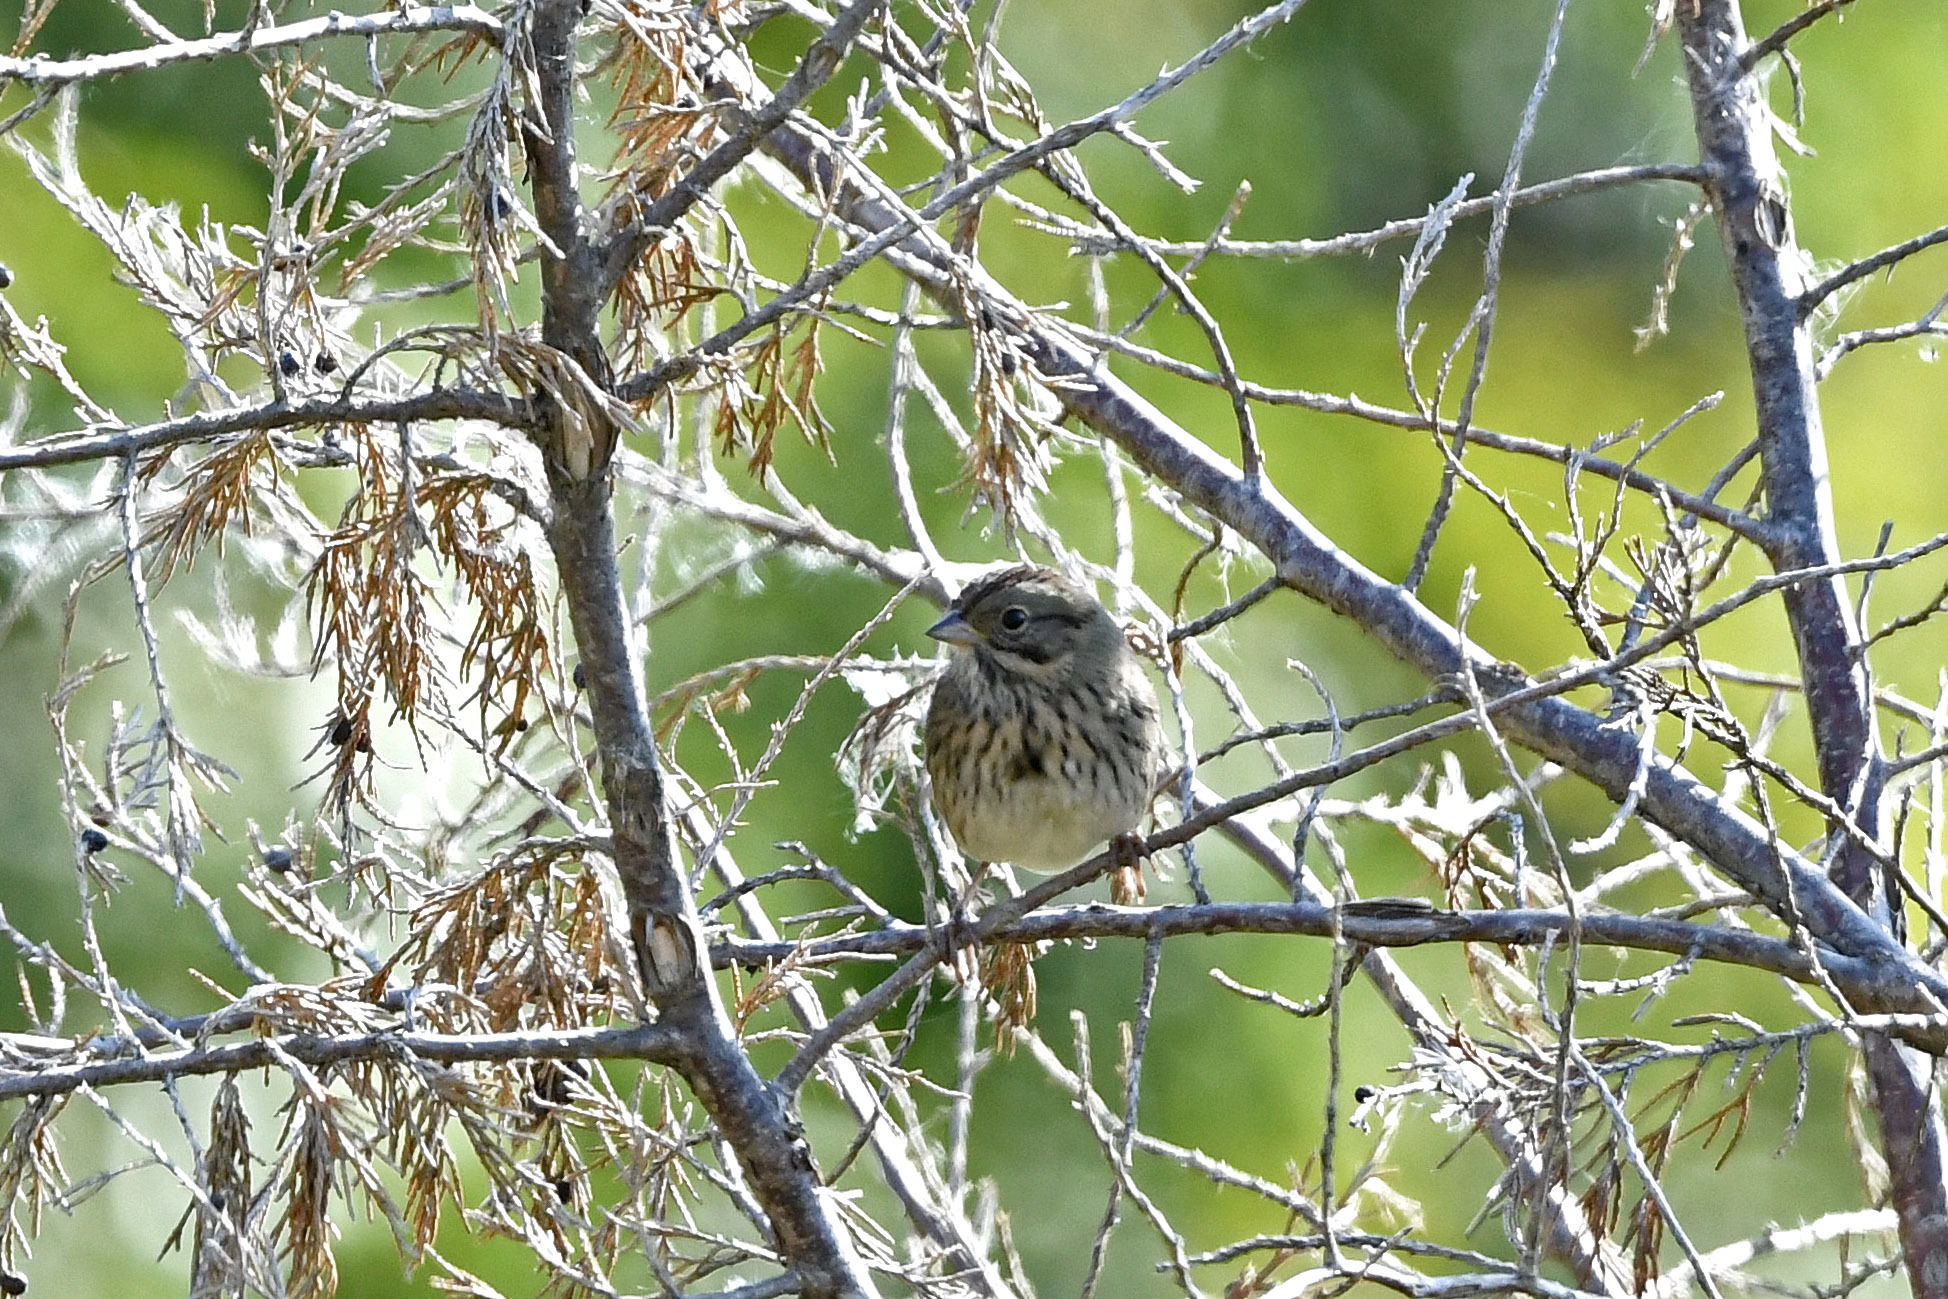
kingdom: Animalia
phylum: Chordata
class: Aves
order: Passeriformes
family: Passerellidae
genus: Melospiza
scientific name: Melospiza lincolnii
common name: Lincoln's sparrow
